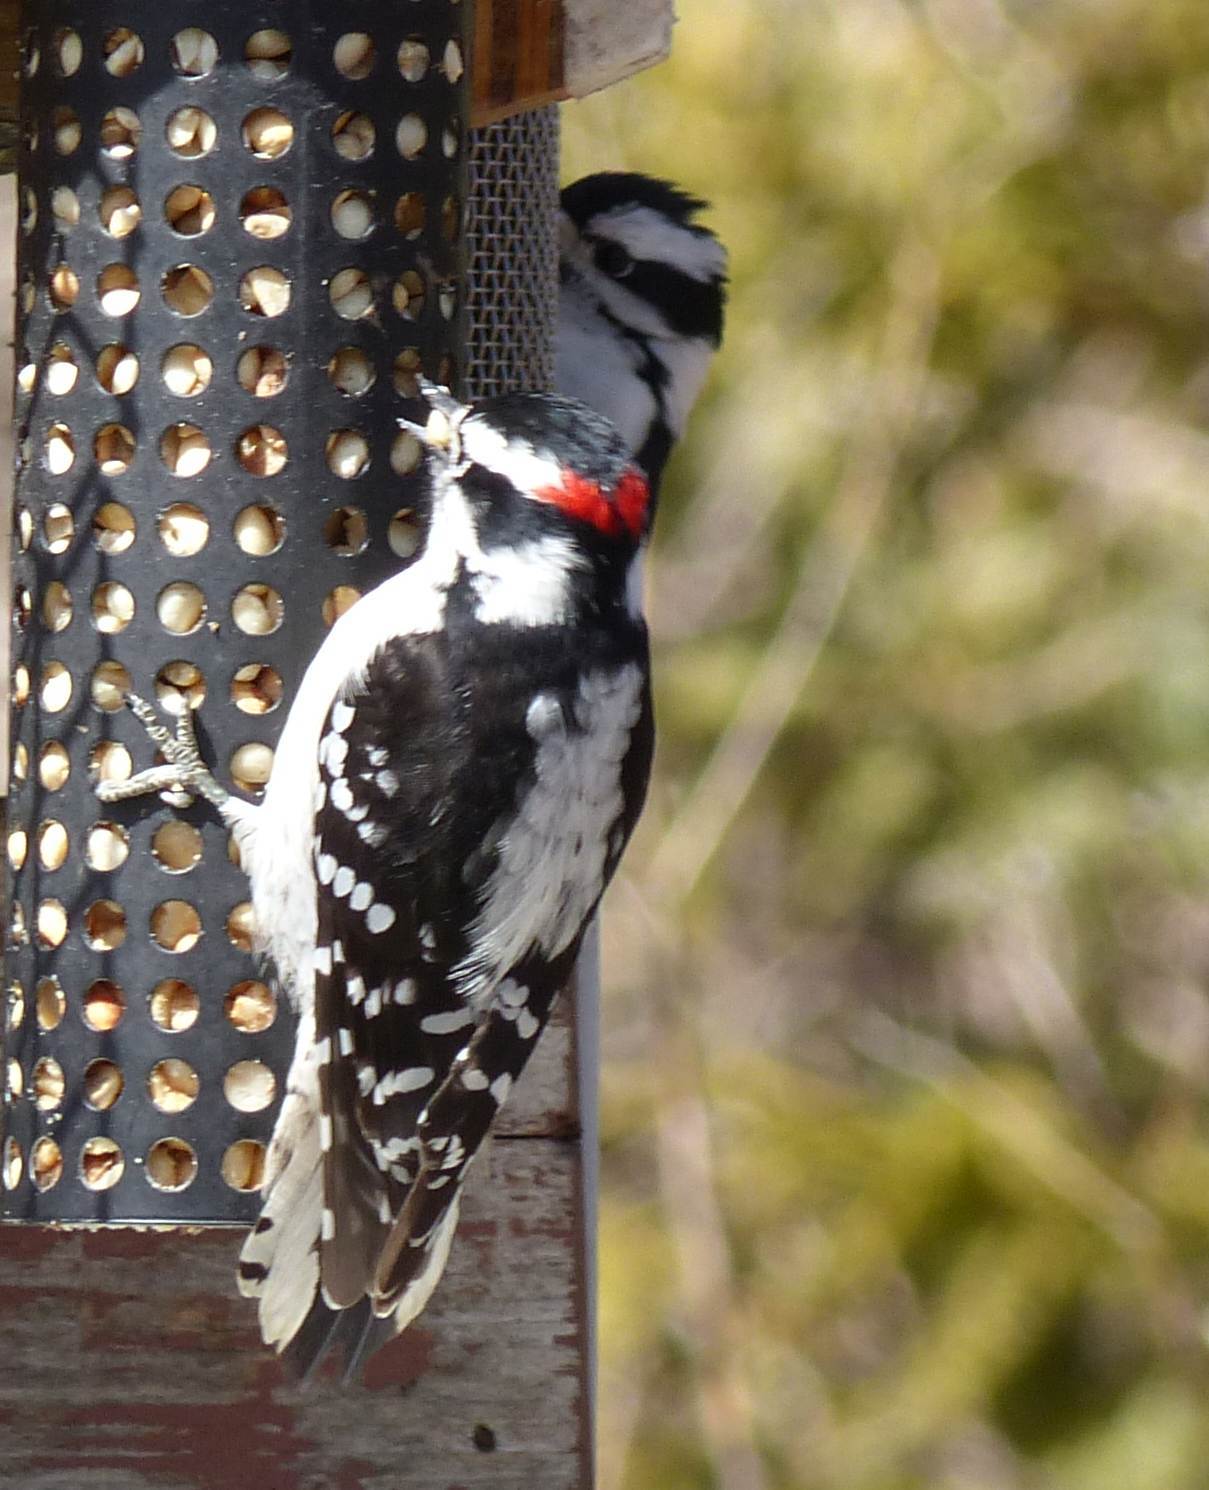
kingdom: Animalia
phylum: Chordata
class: Aves
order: Piciformes
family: Picidae
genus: Dryobates
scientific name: Dryobates pubescens
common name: Downy woodpecker
